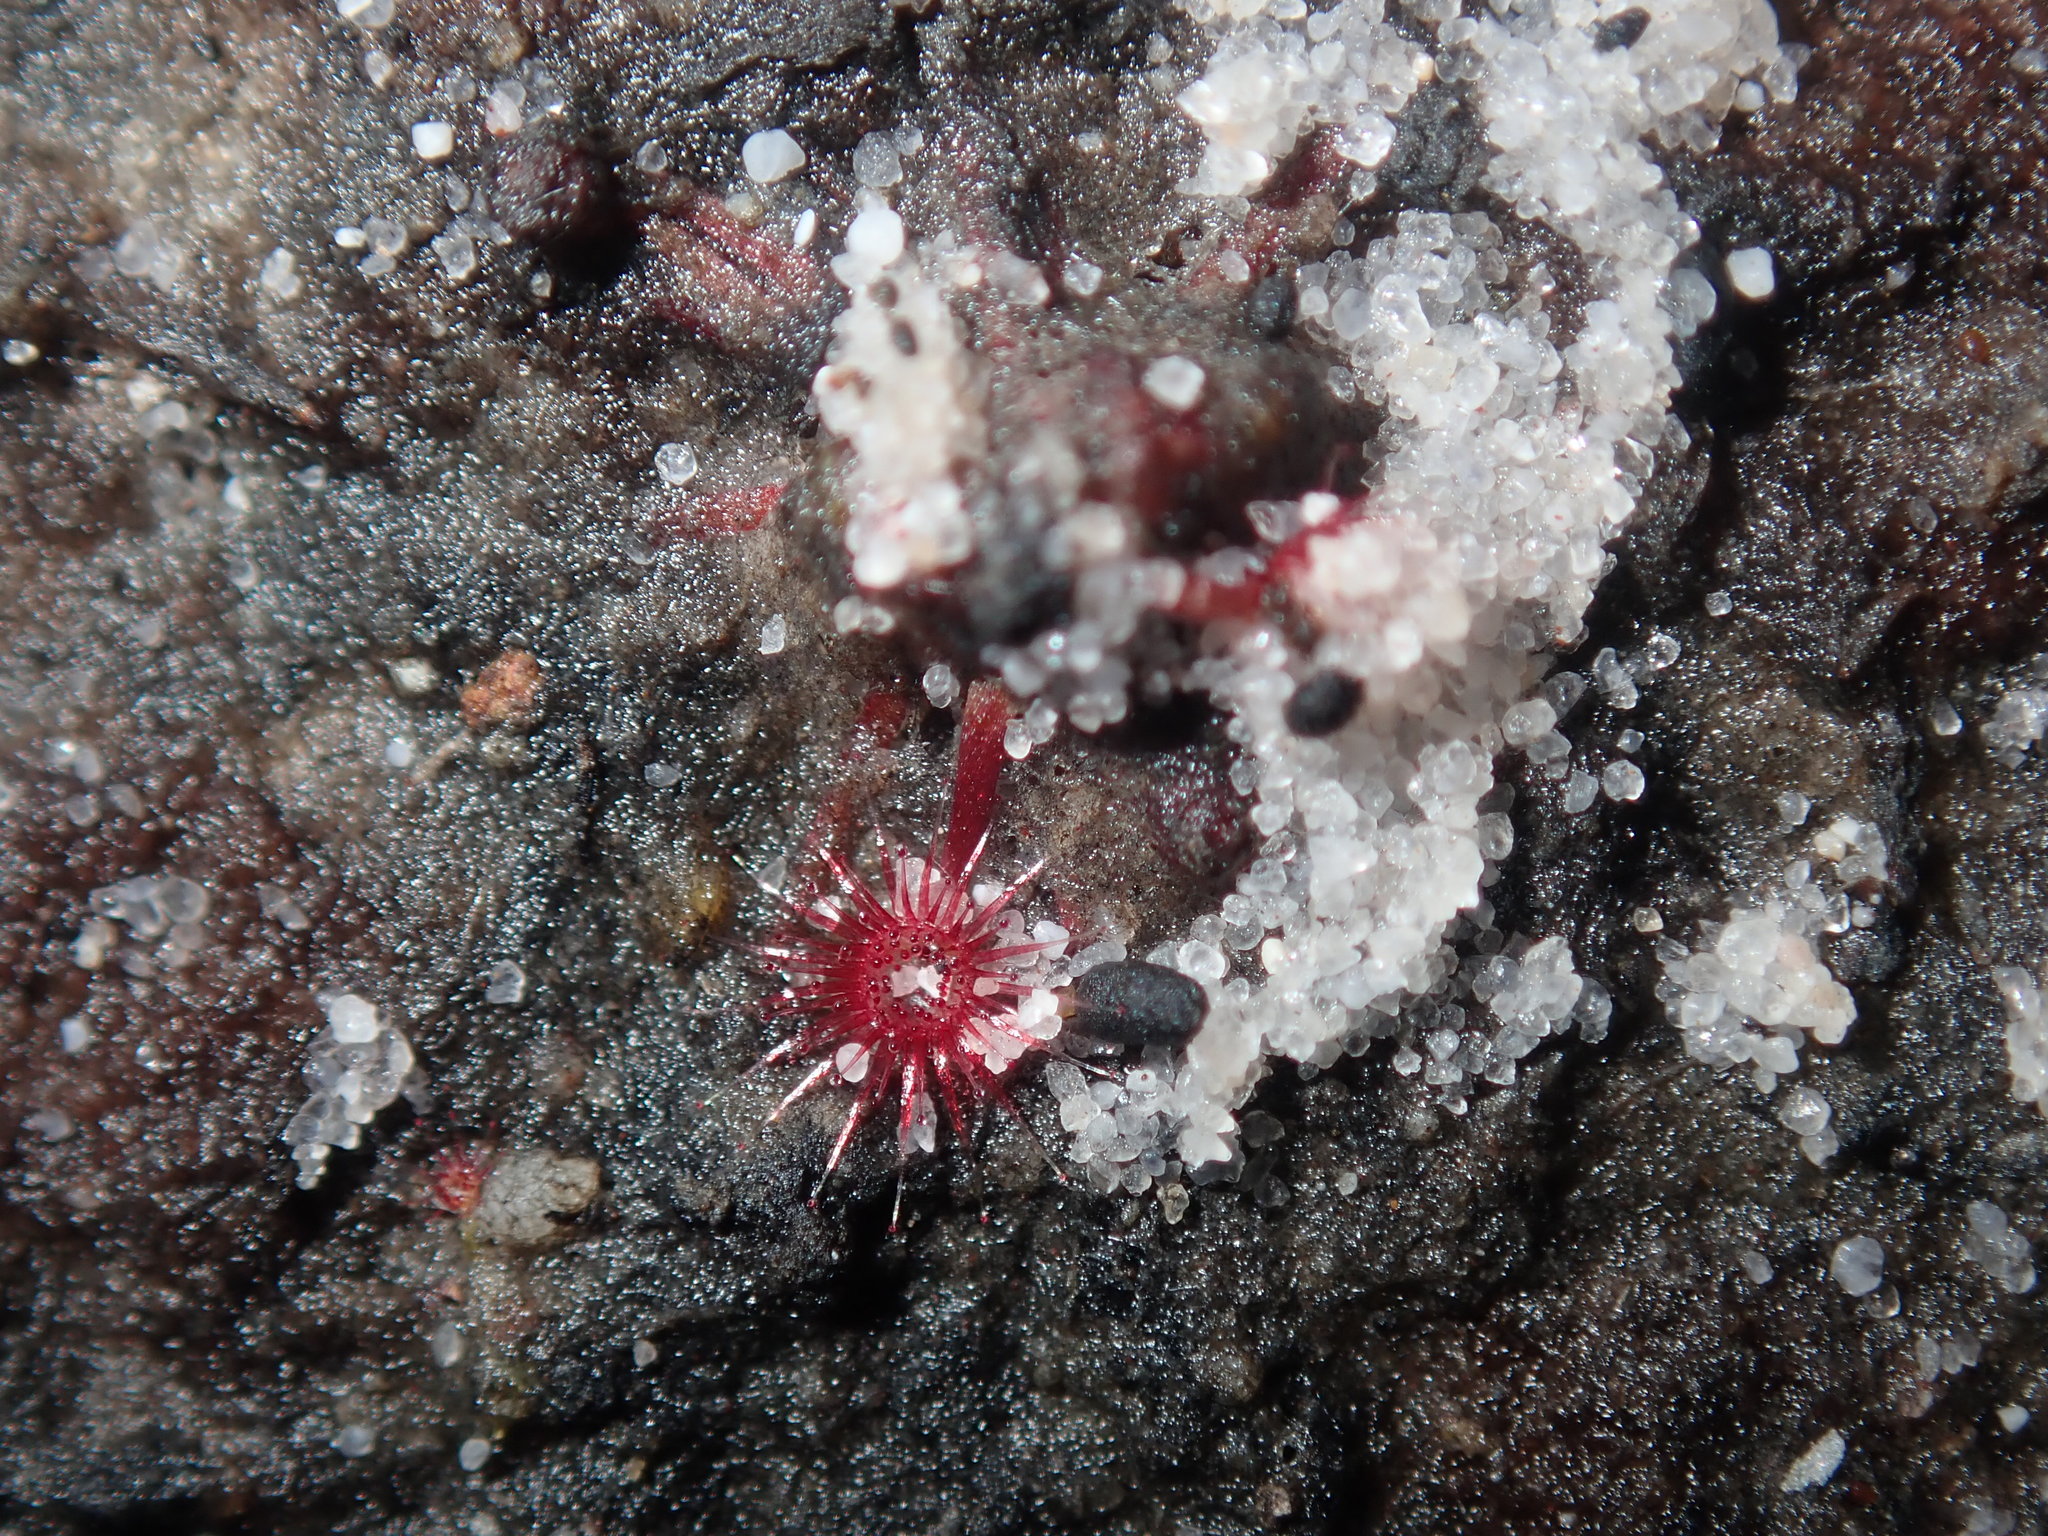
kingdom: Plantae
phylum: Tracheophyta
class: Magnoliopsida
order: Caryophyllales
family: Droseraceae
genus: Drosera
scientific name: Drosera pygmaea
